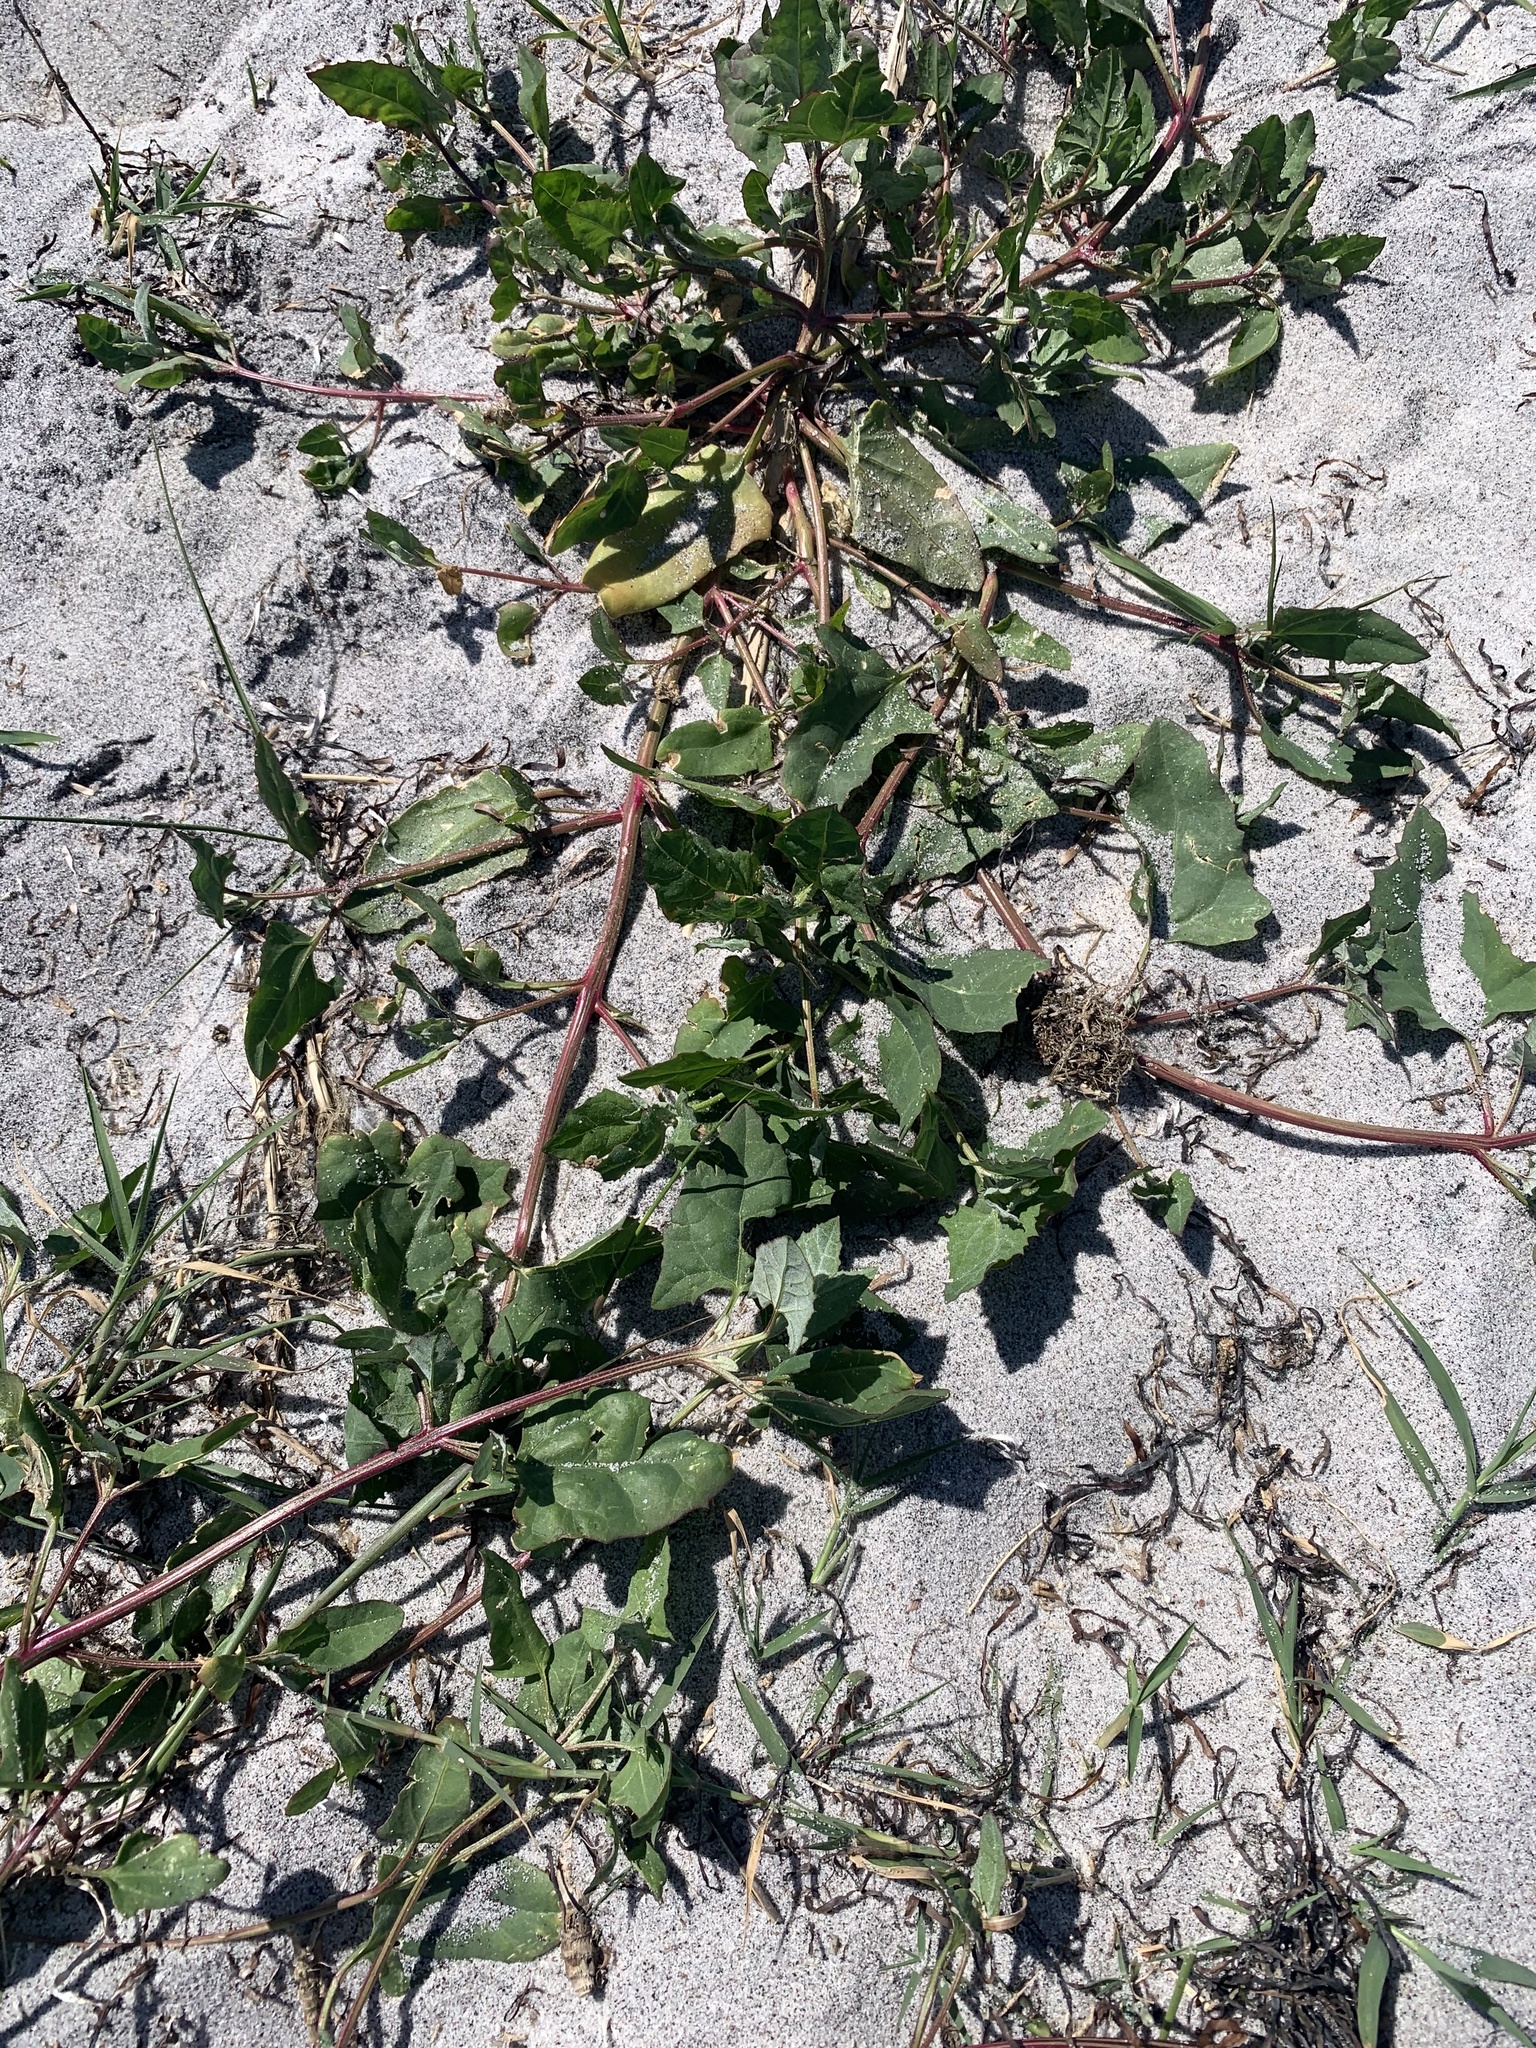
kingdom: Plantae
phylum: Tracheophyta
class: Magnoliopsida
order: Caryophyllales
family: Amaranthaceae
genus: Atriplex
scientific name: Atriplex prostrata
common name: Spear-leaved orache
